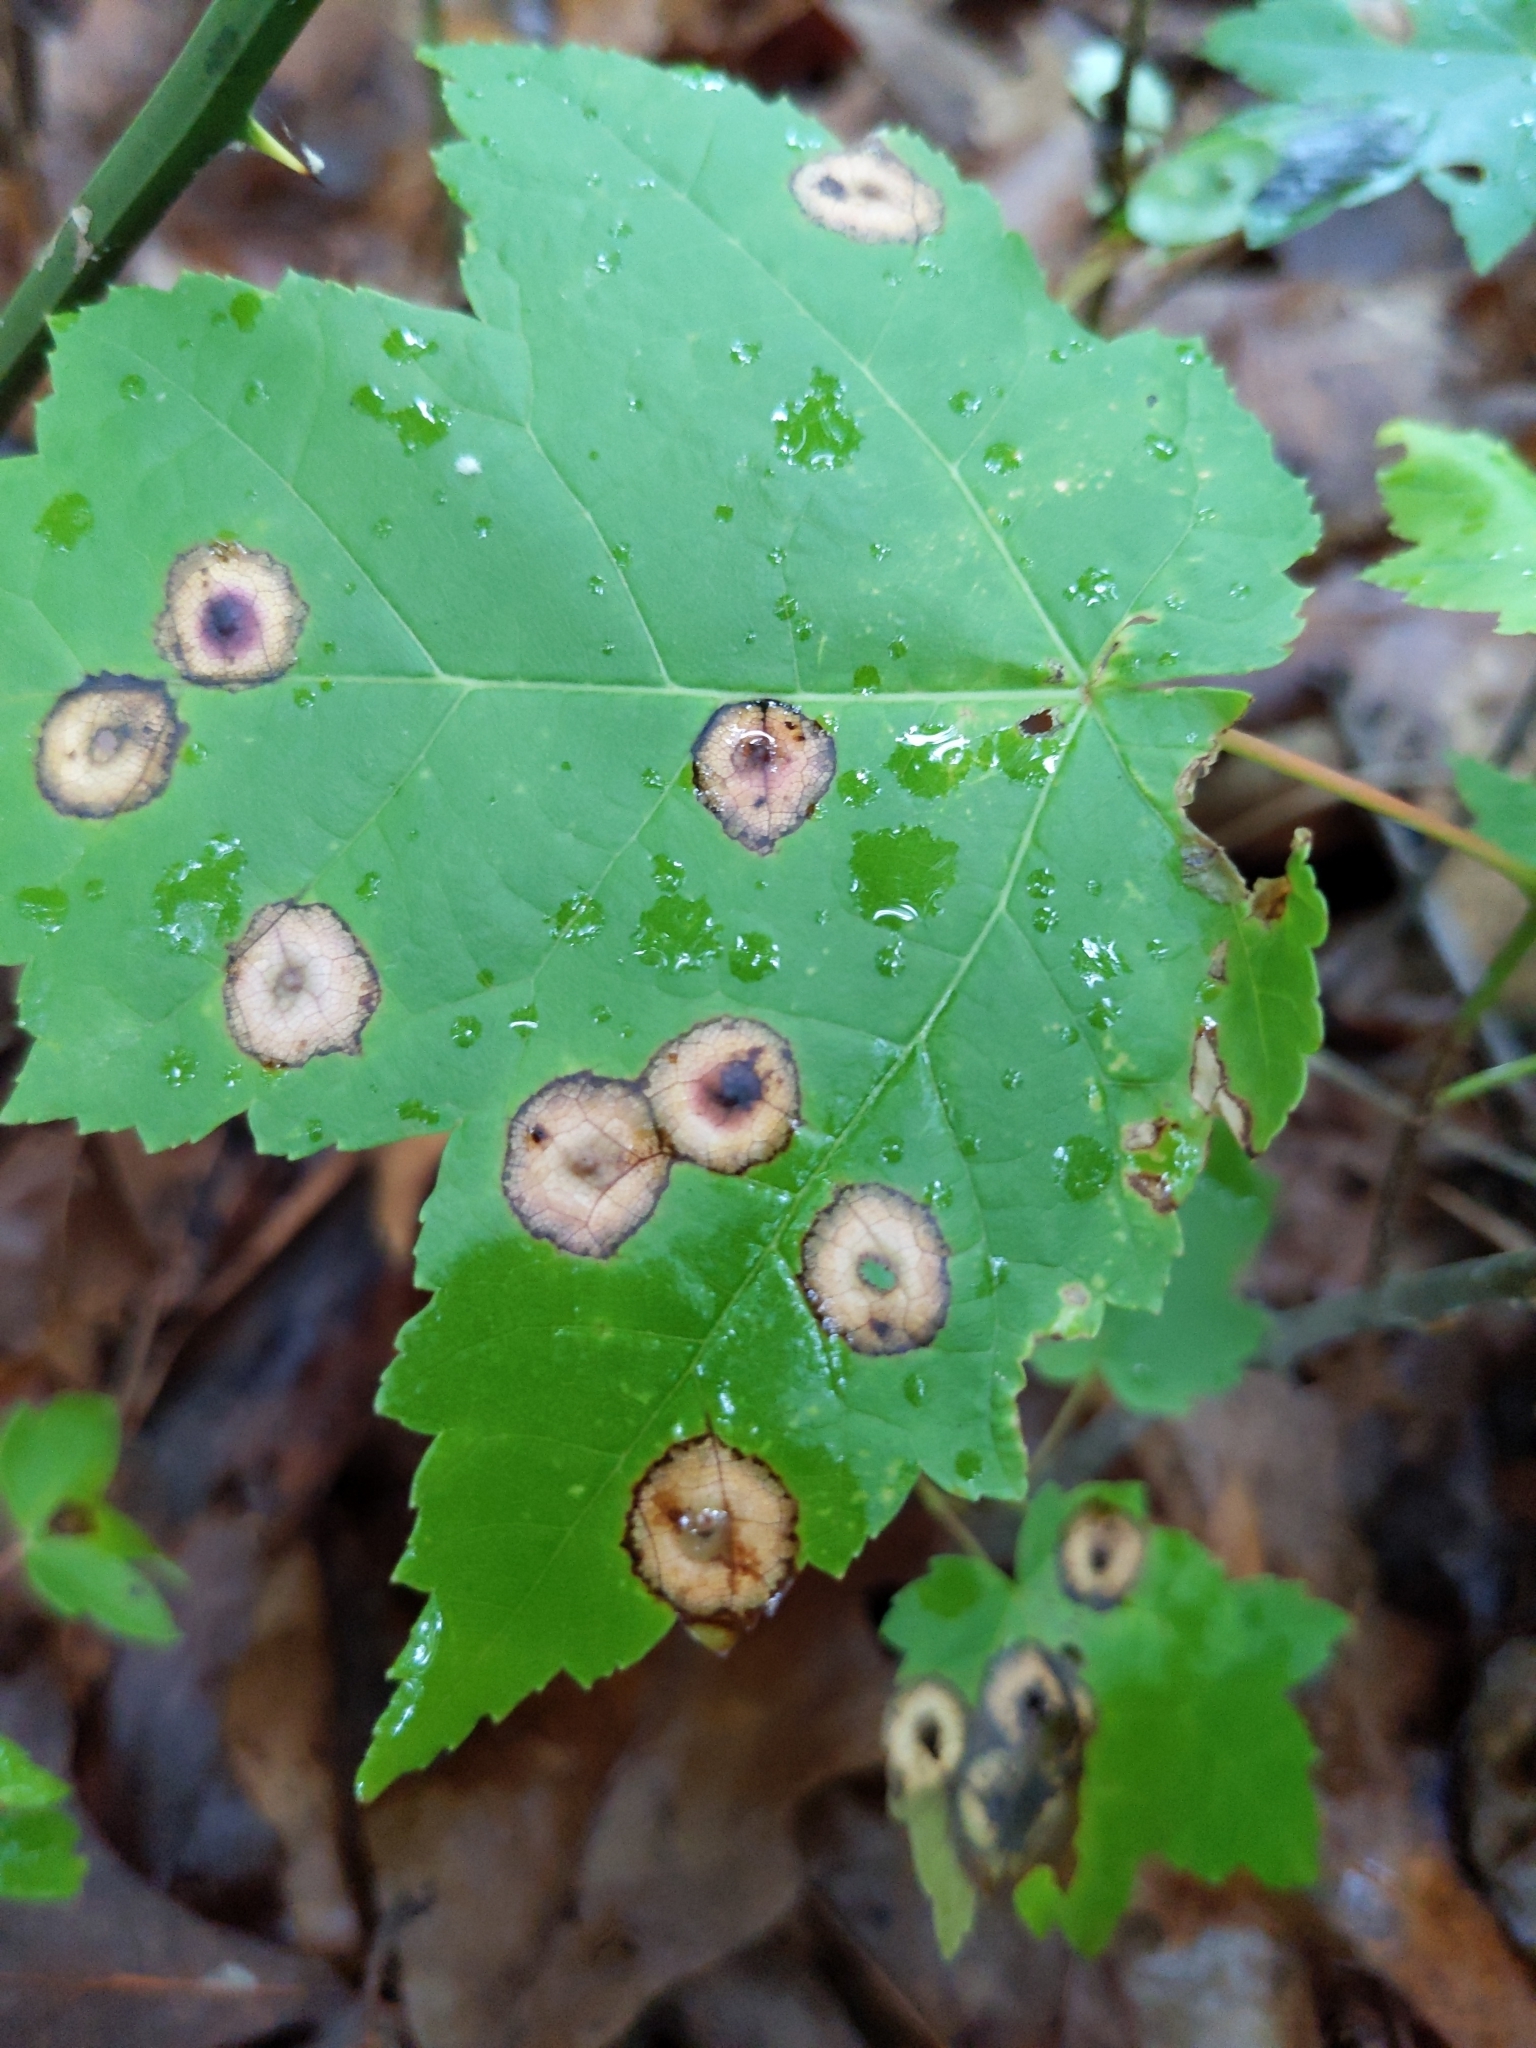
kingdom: Animalia
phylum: Arthropoda
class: Insecta
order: Diptera
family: Cecidomyiidae
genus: Acericecis
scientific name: Acericecis ocellaris
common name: Ocellate gall midge
